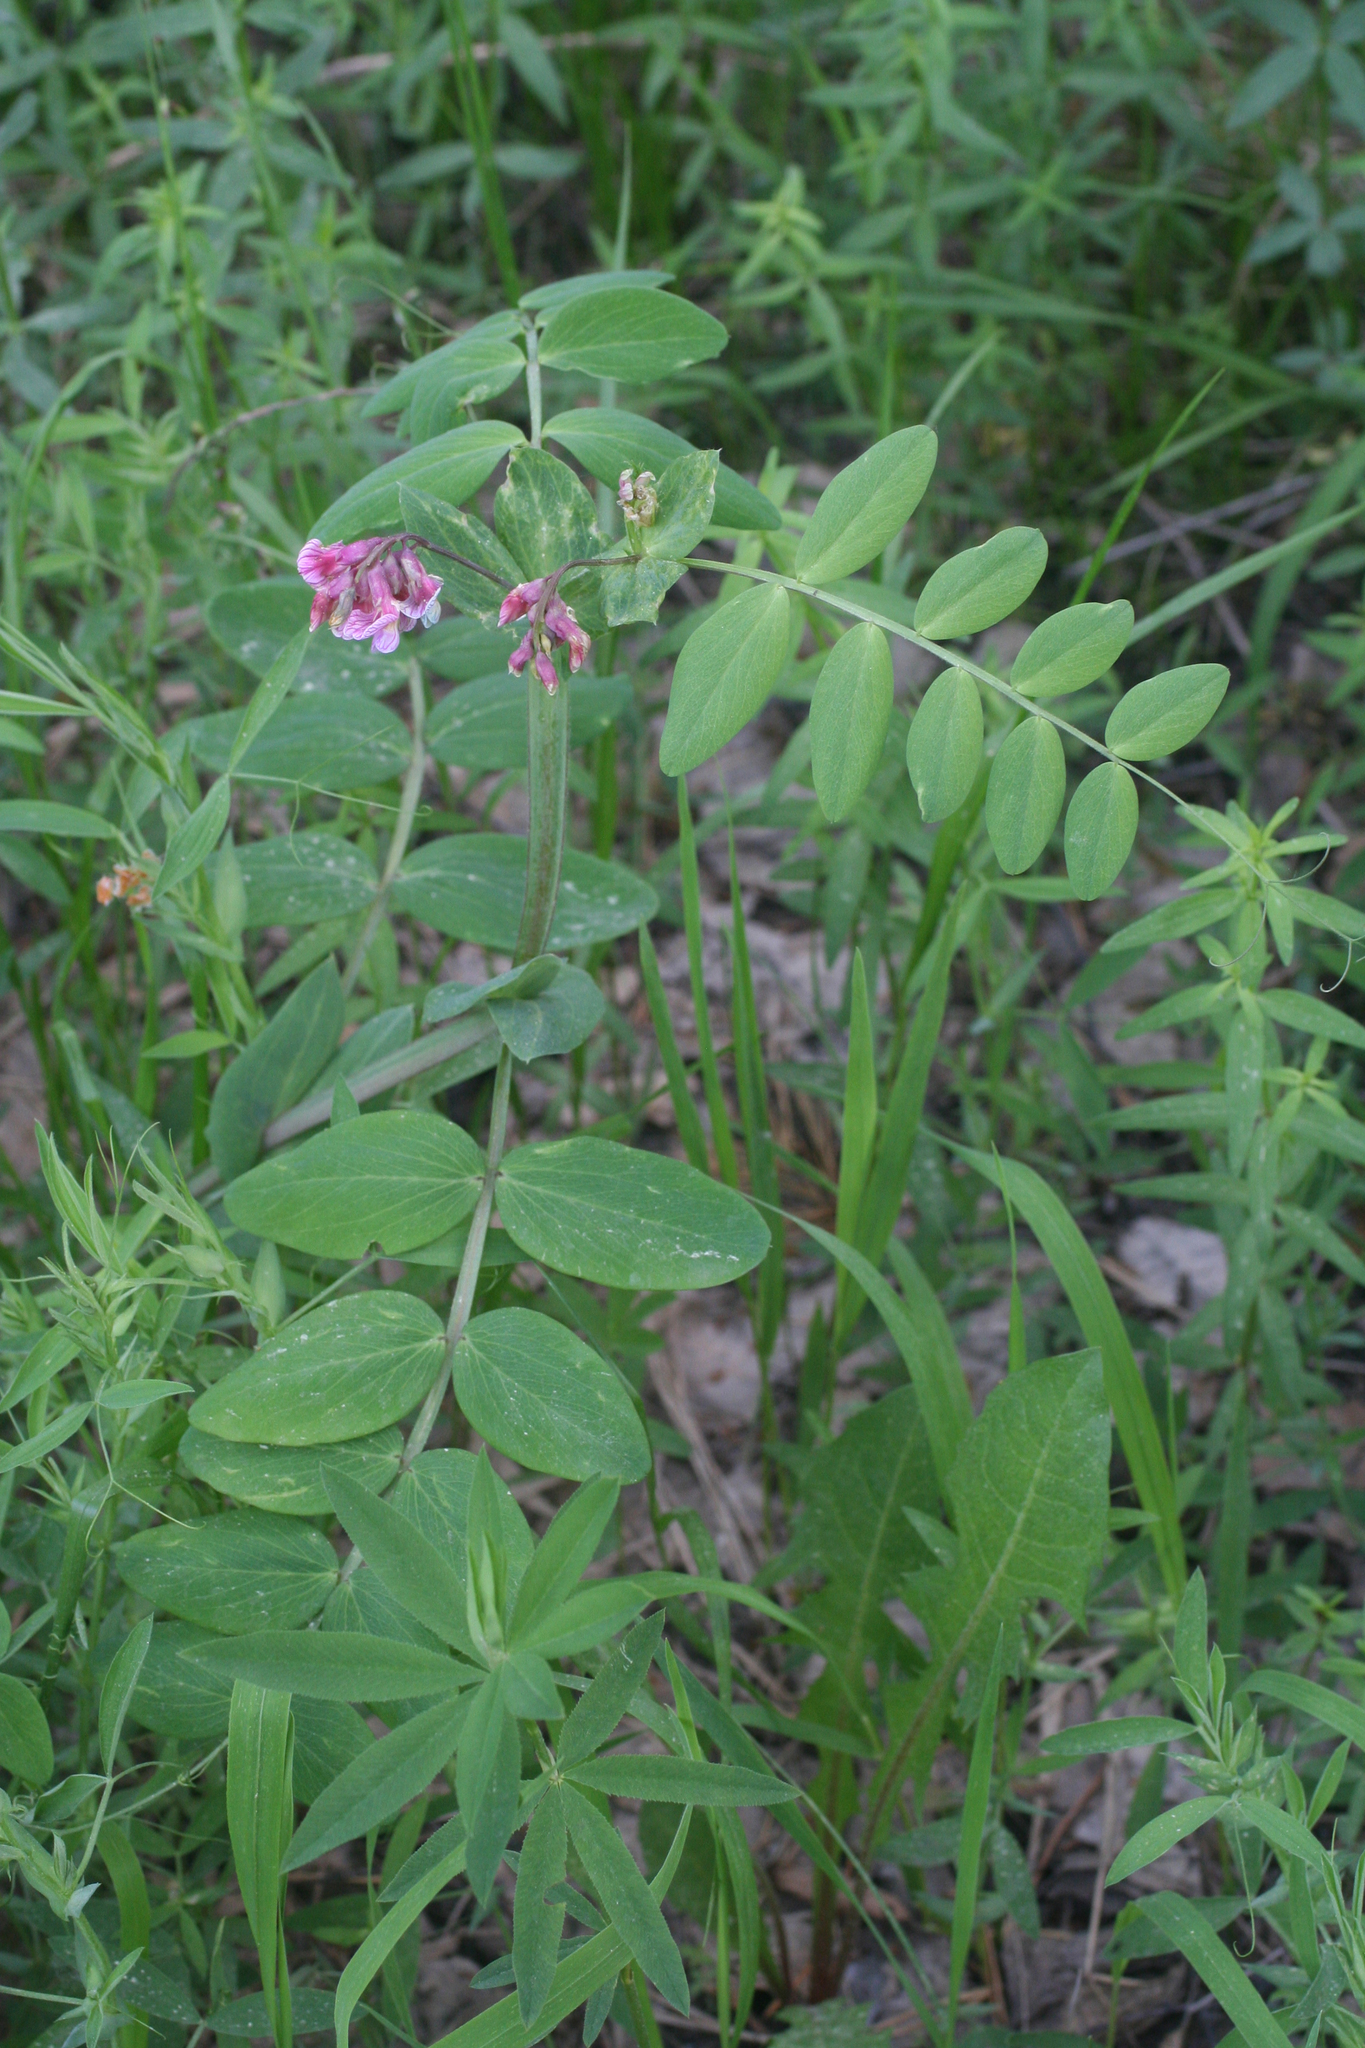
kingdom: Plantae
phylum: Tracheophyta
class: Magnoliopsida
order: Fabales
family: Fabaceae
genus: Lathyrus
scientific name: Lathyrus pisiformis
